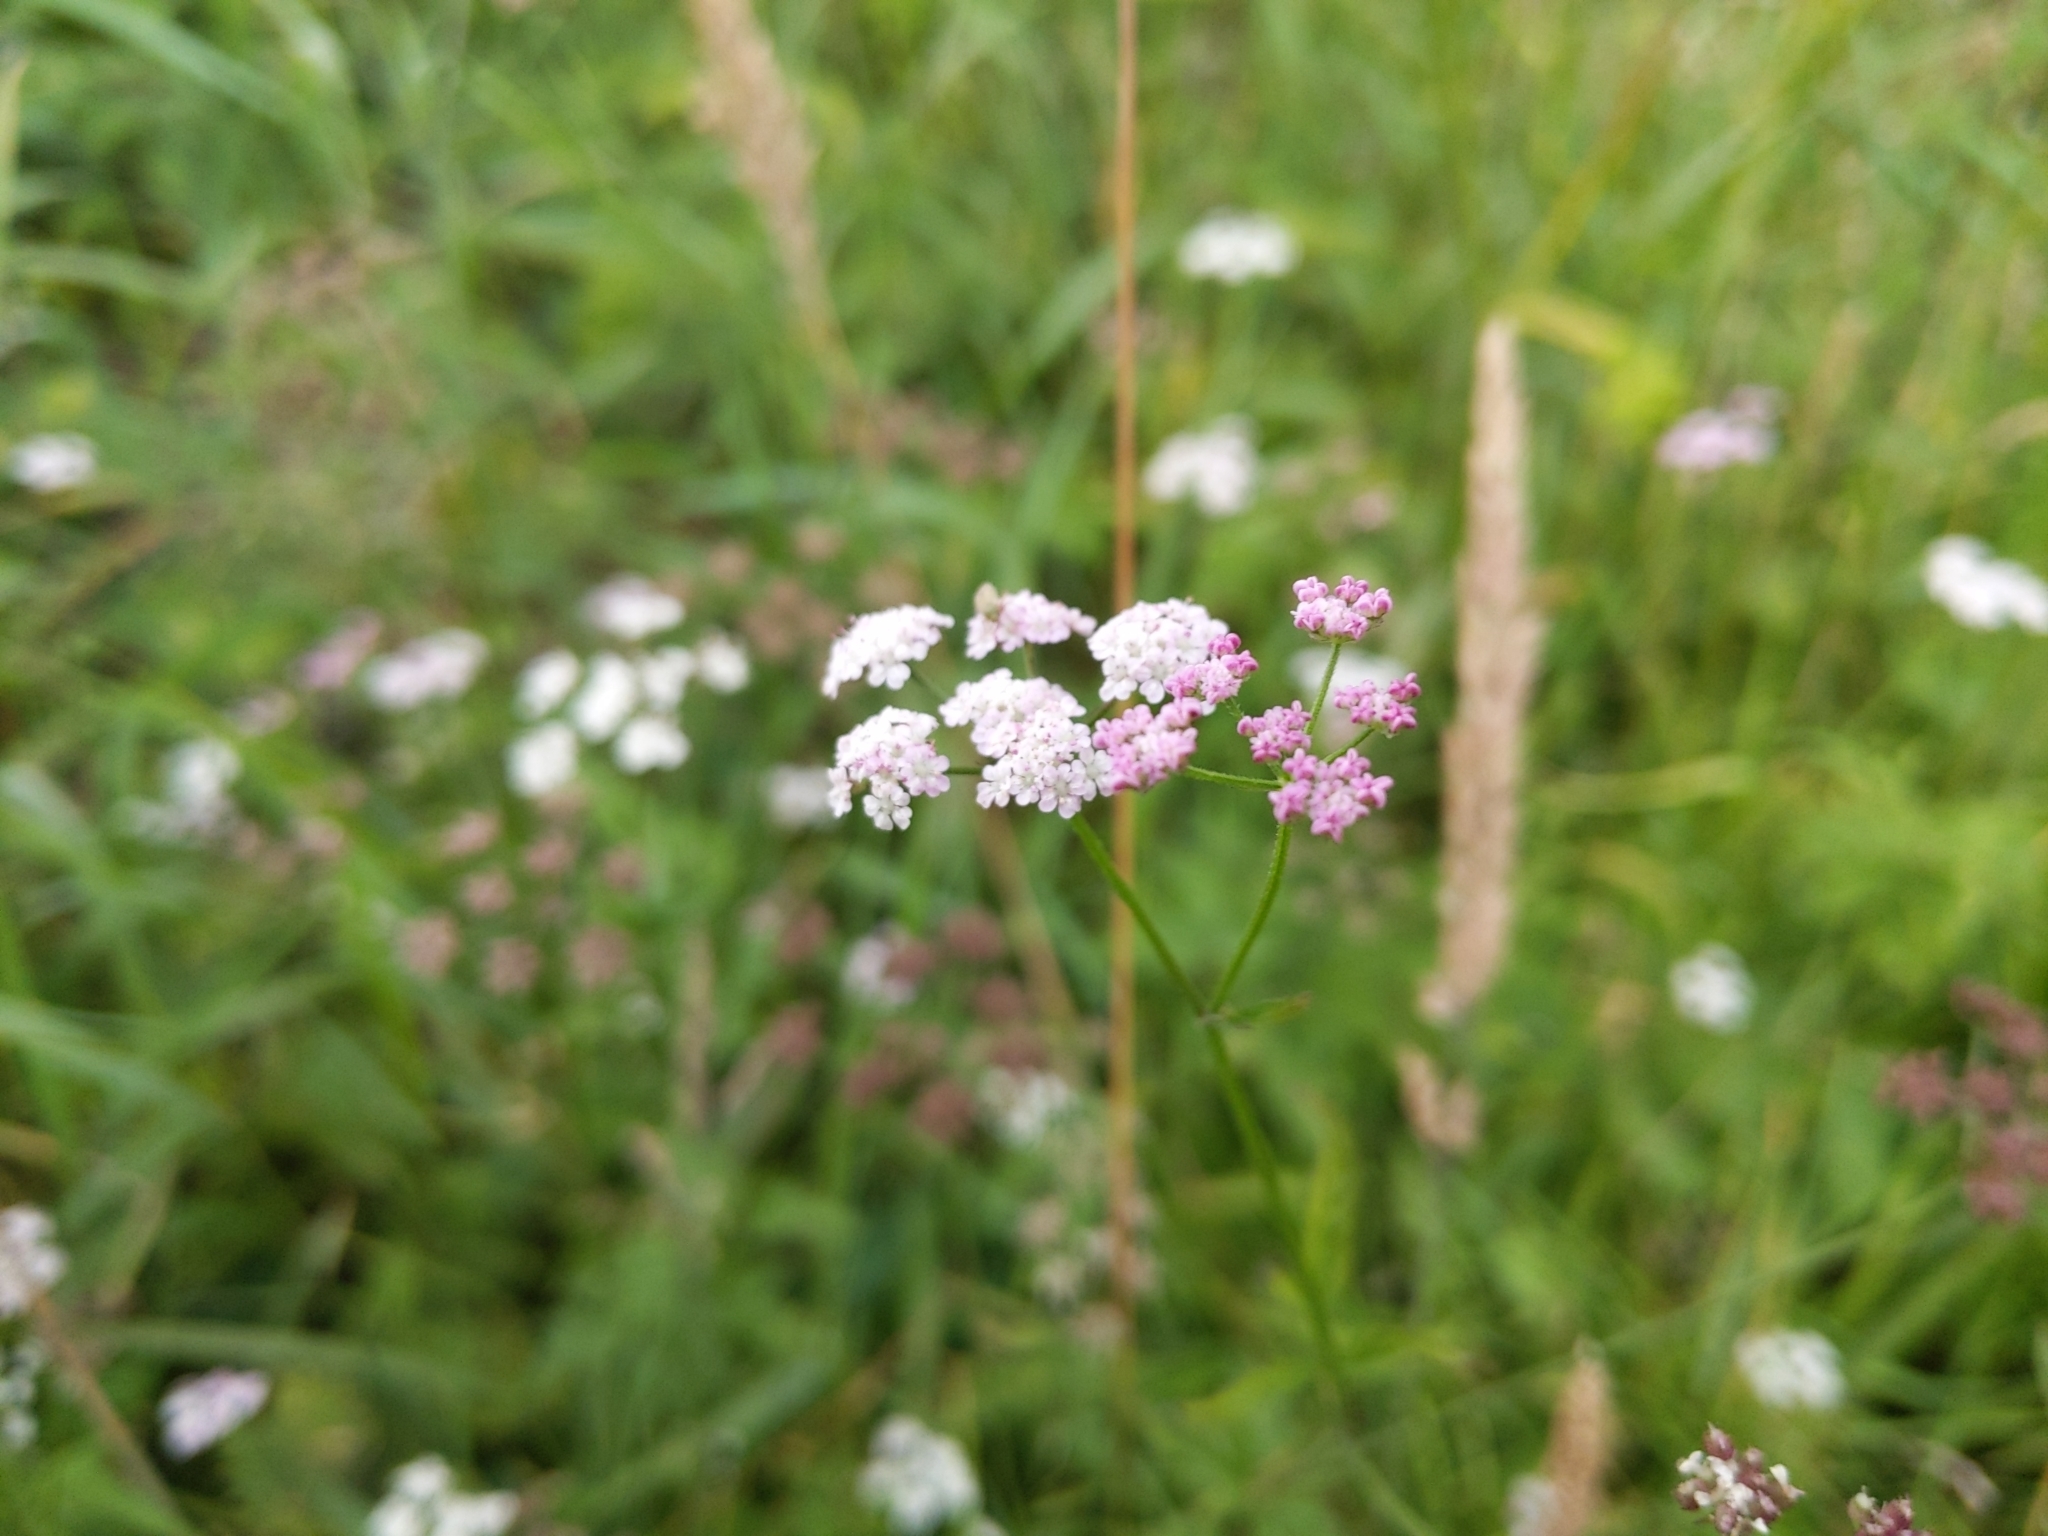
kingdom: Plantae
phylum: Tracheophyta
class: Magnoliopsida
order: Apiales
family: Apiaceae
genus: Torilis
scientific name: Torilis japonica
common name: Upright hedge-parsley
